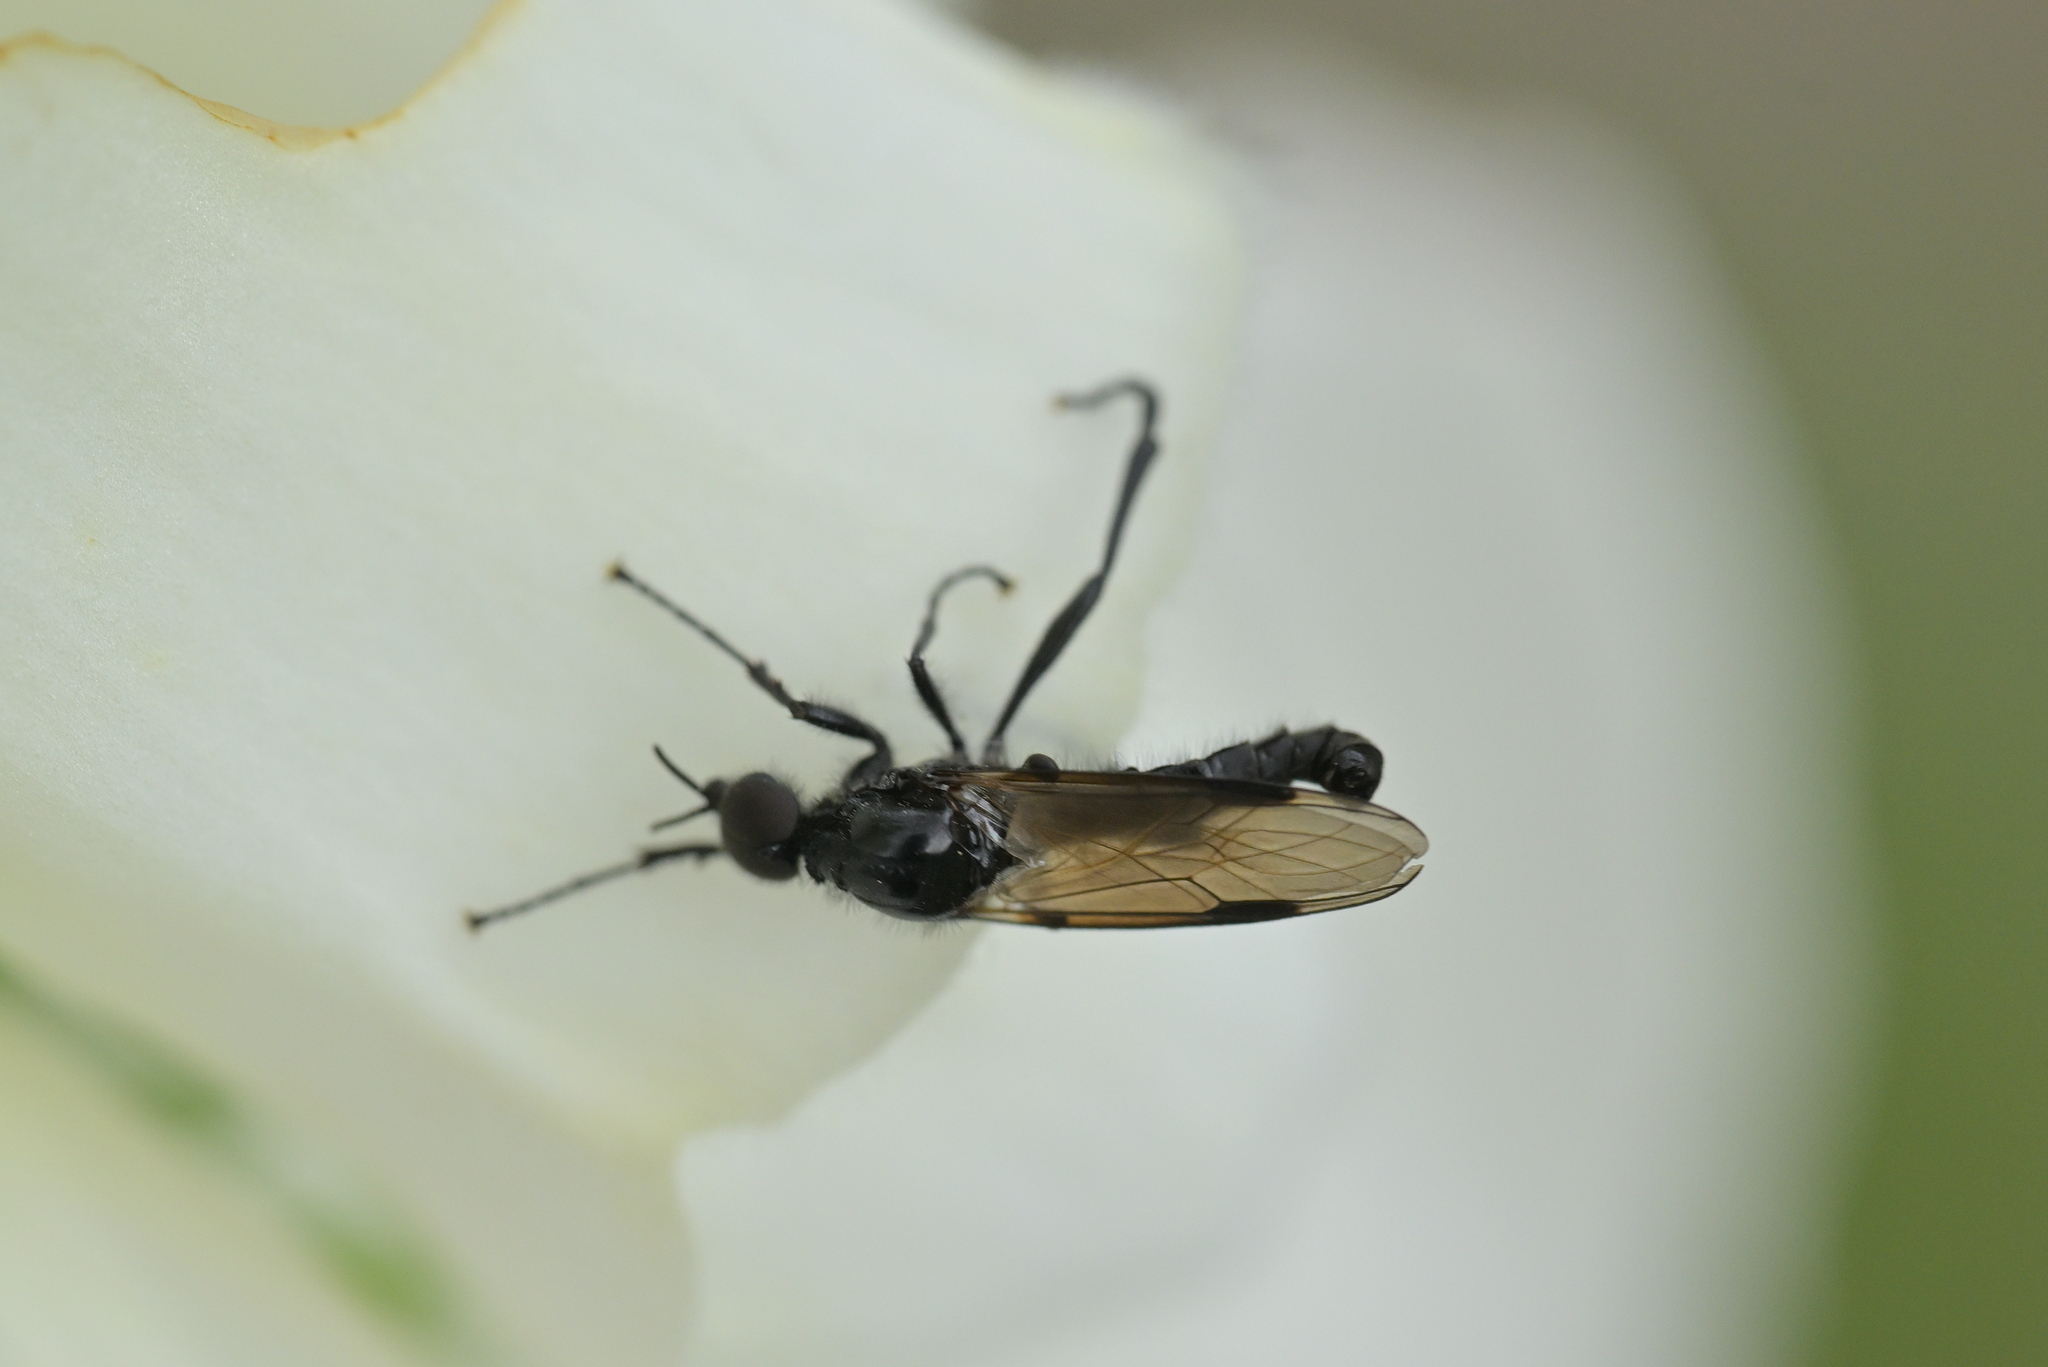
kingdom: Animalia
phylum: Arthropoda
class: Insecta
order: Diptera
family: Bibionidae
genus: Dilophus
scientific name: Dilophus nigrostigma
